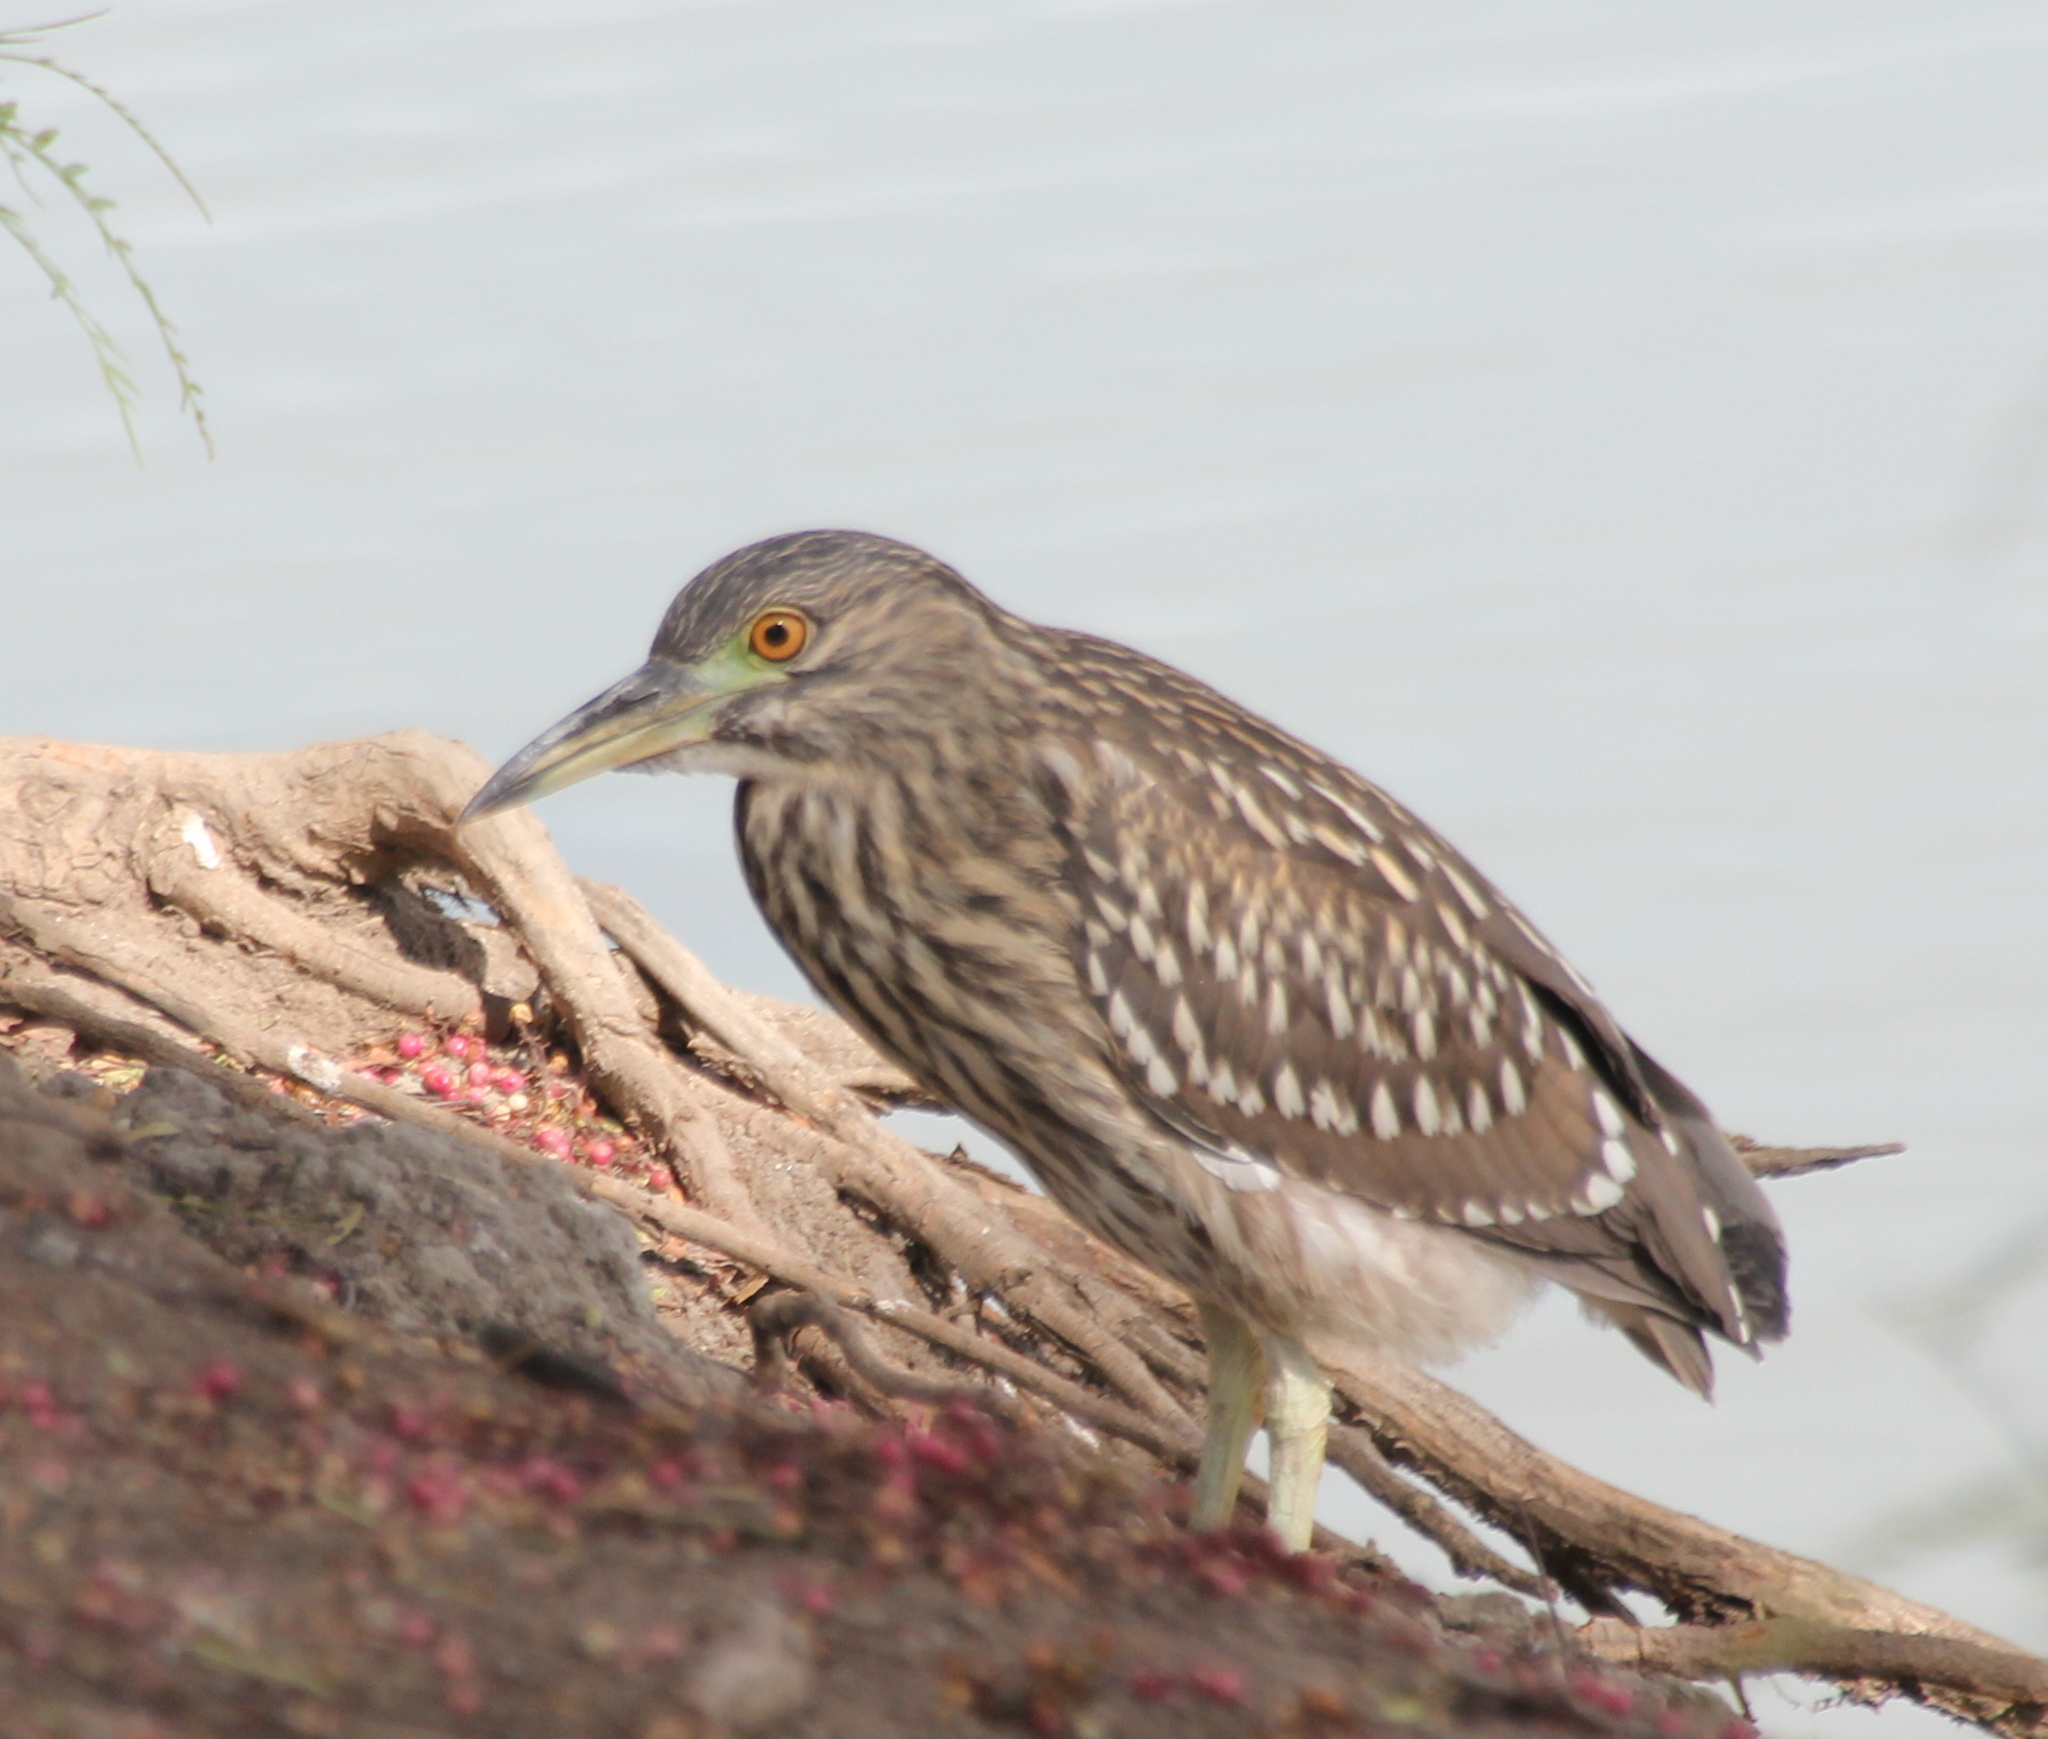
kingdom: Animalia
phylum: Chordata
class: Aves
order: Pelecaniformes
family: Ardeidae
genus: Nycticorax
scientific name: Nycticorax nycticorax
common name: Black-crowned night heron
